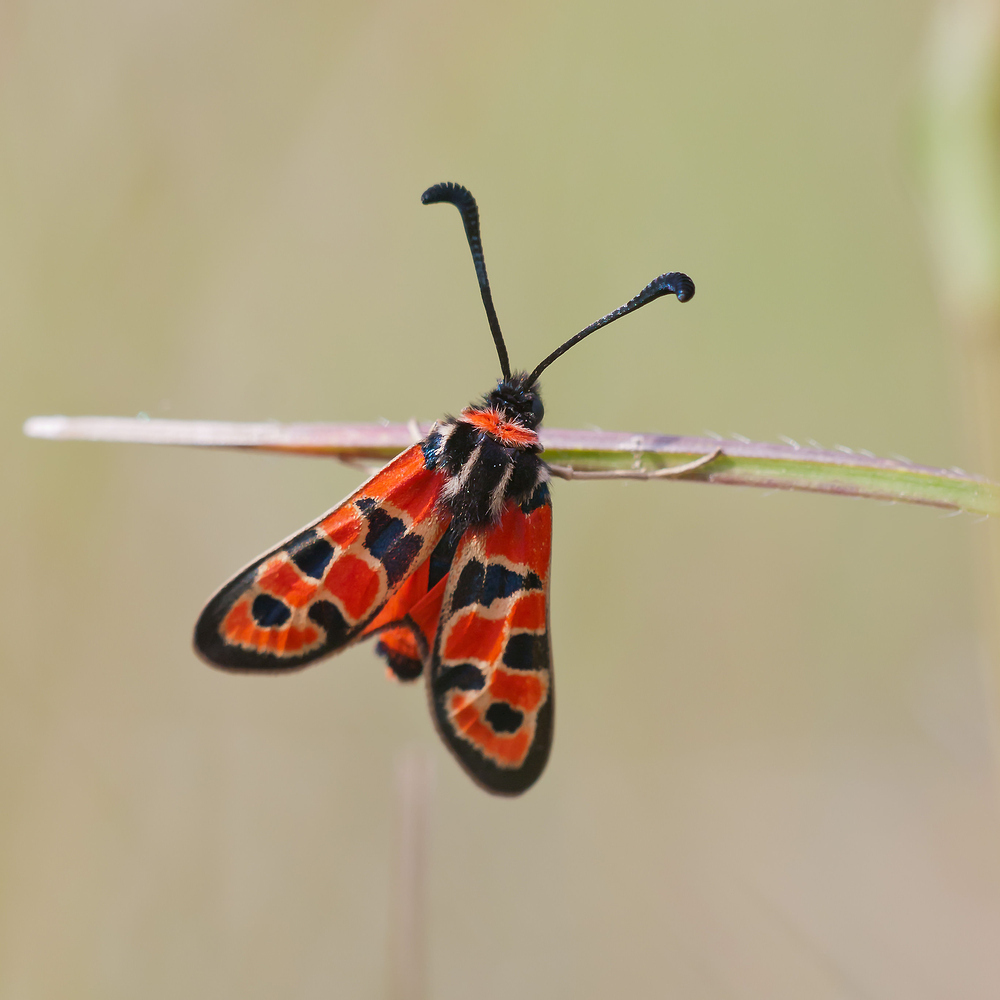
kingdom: Animalia
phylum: Arthropoda
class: Insecta
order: Lepidoptera
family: Zygaenidae
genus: Zygaena
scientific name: Zygaena fausta
